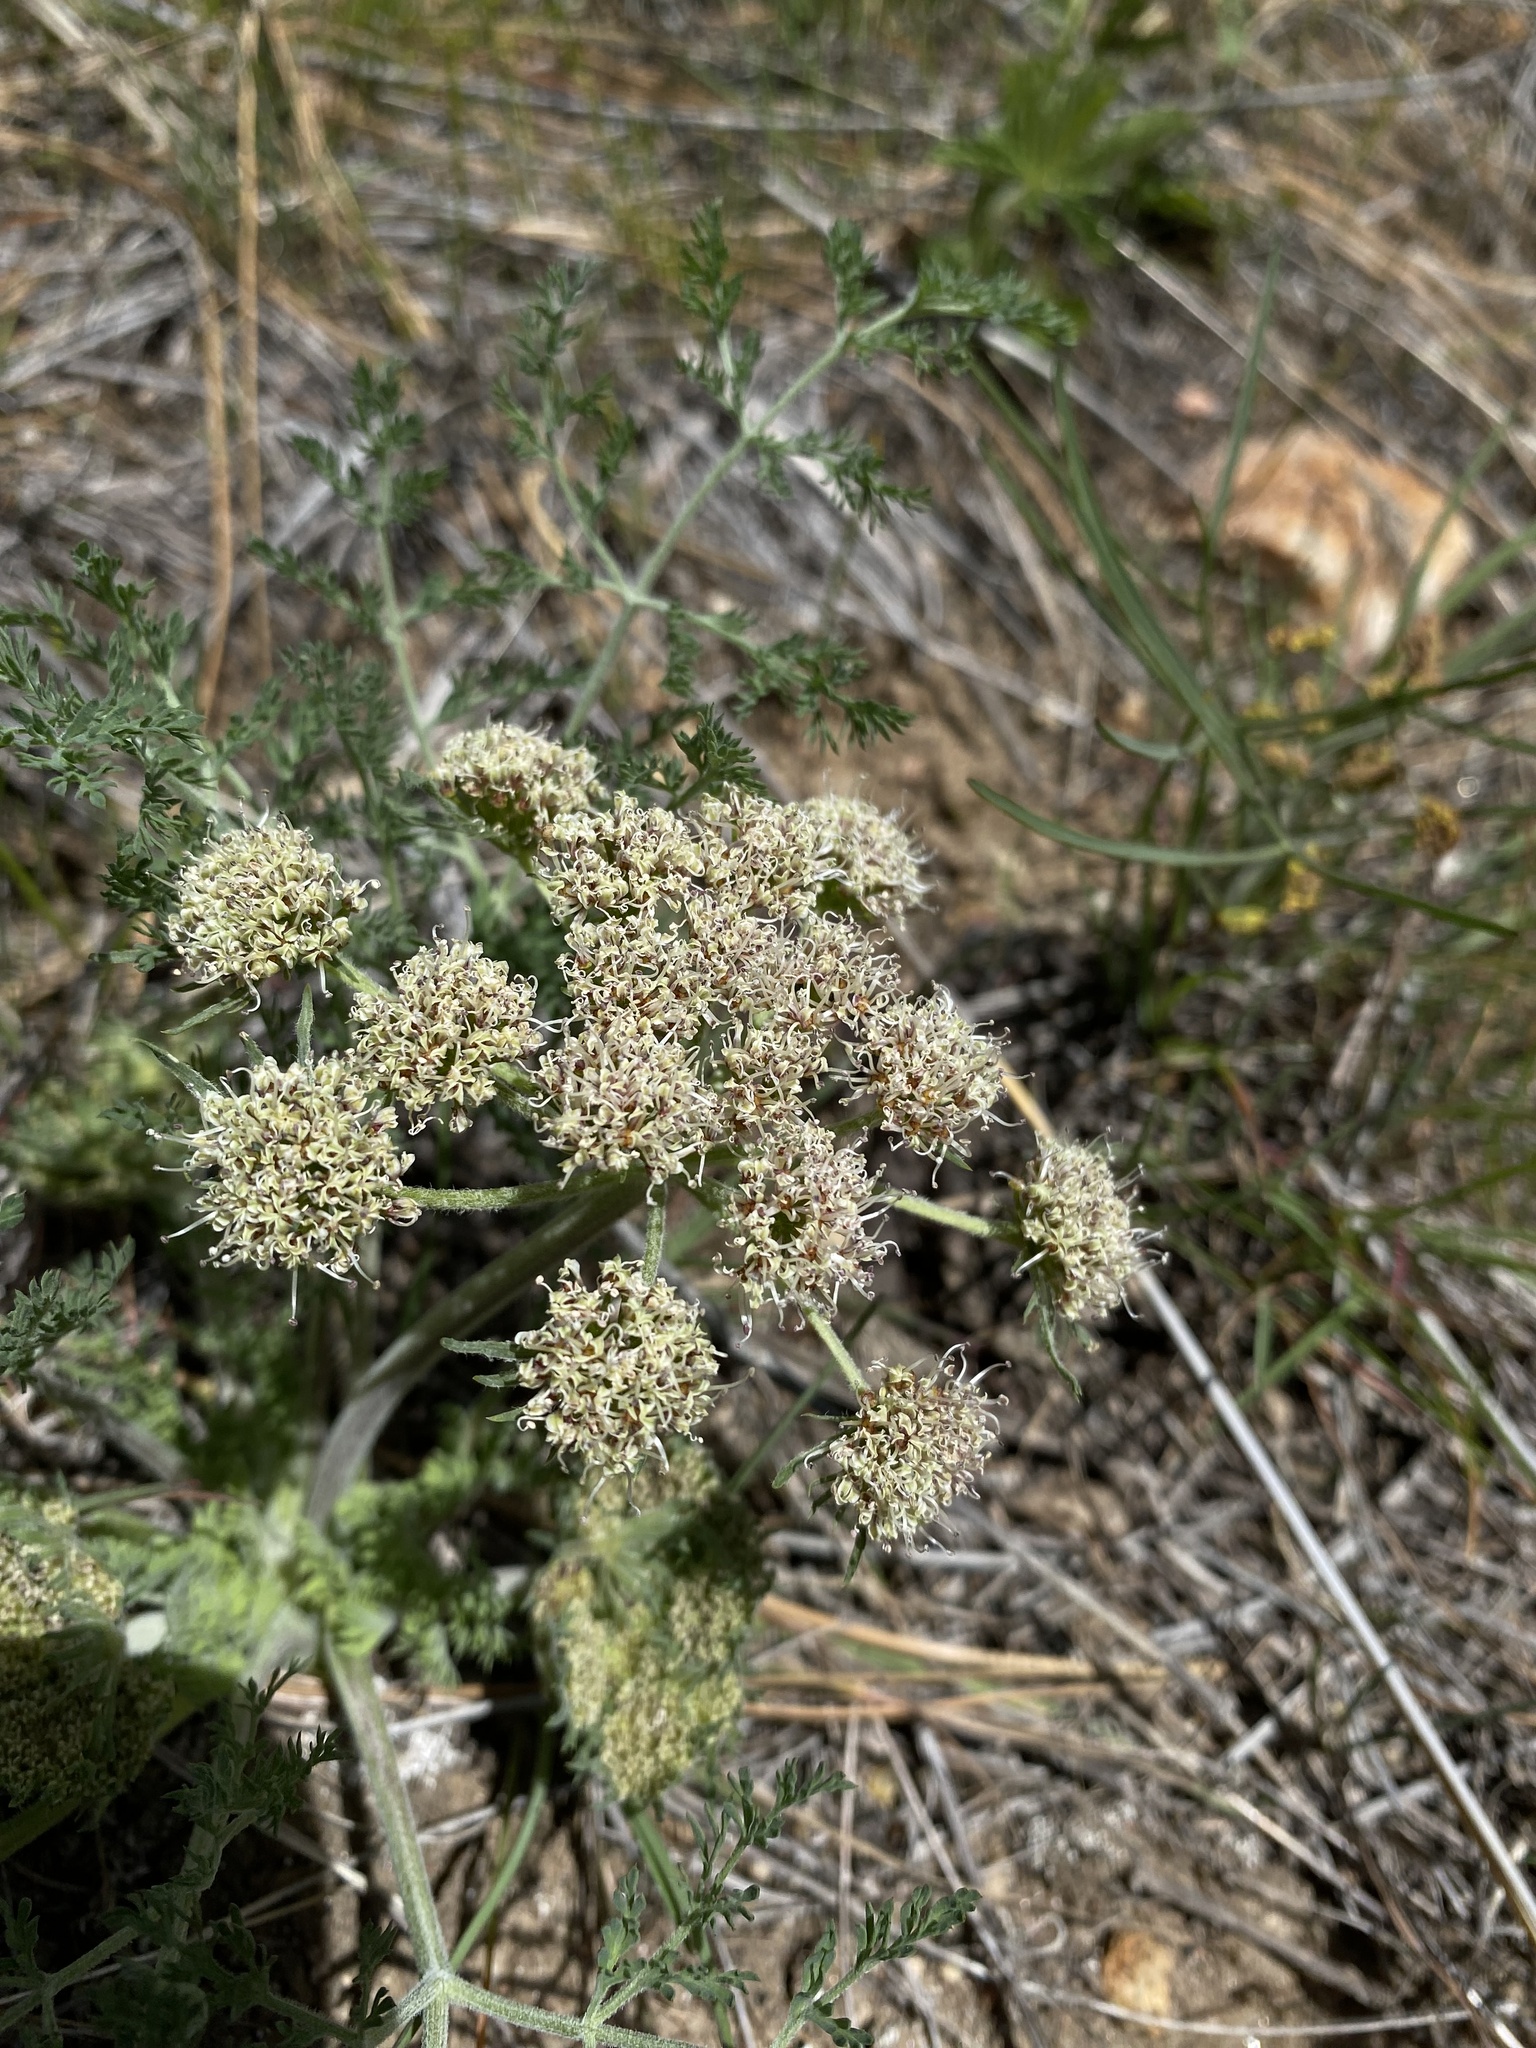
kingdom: Plantae
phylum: Tracheophyta
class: Magnoliopsida
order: Apiales
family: Apiaceae
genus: Lomatium
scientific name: Lomatium macrocarpum
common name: Big-seed biscuitroot
